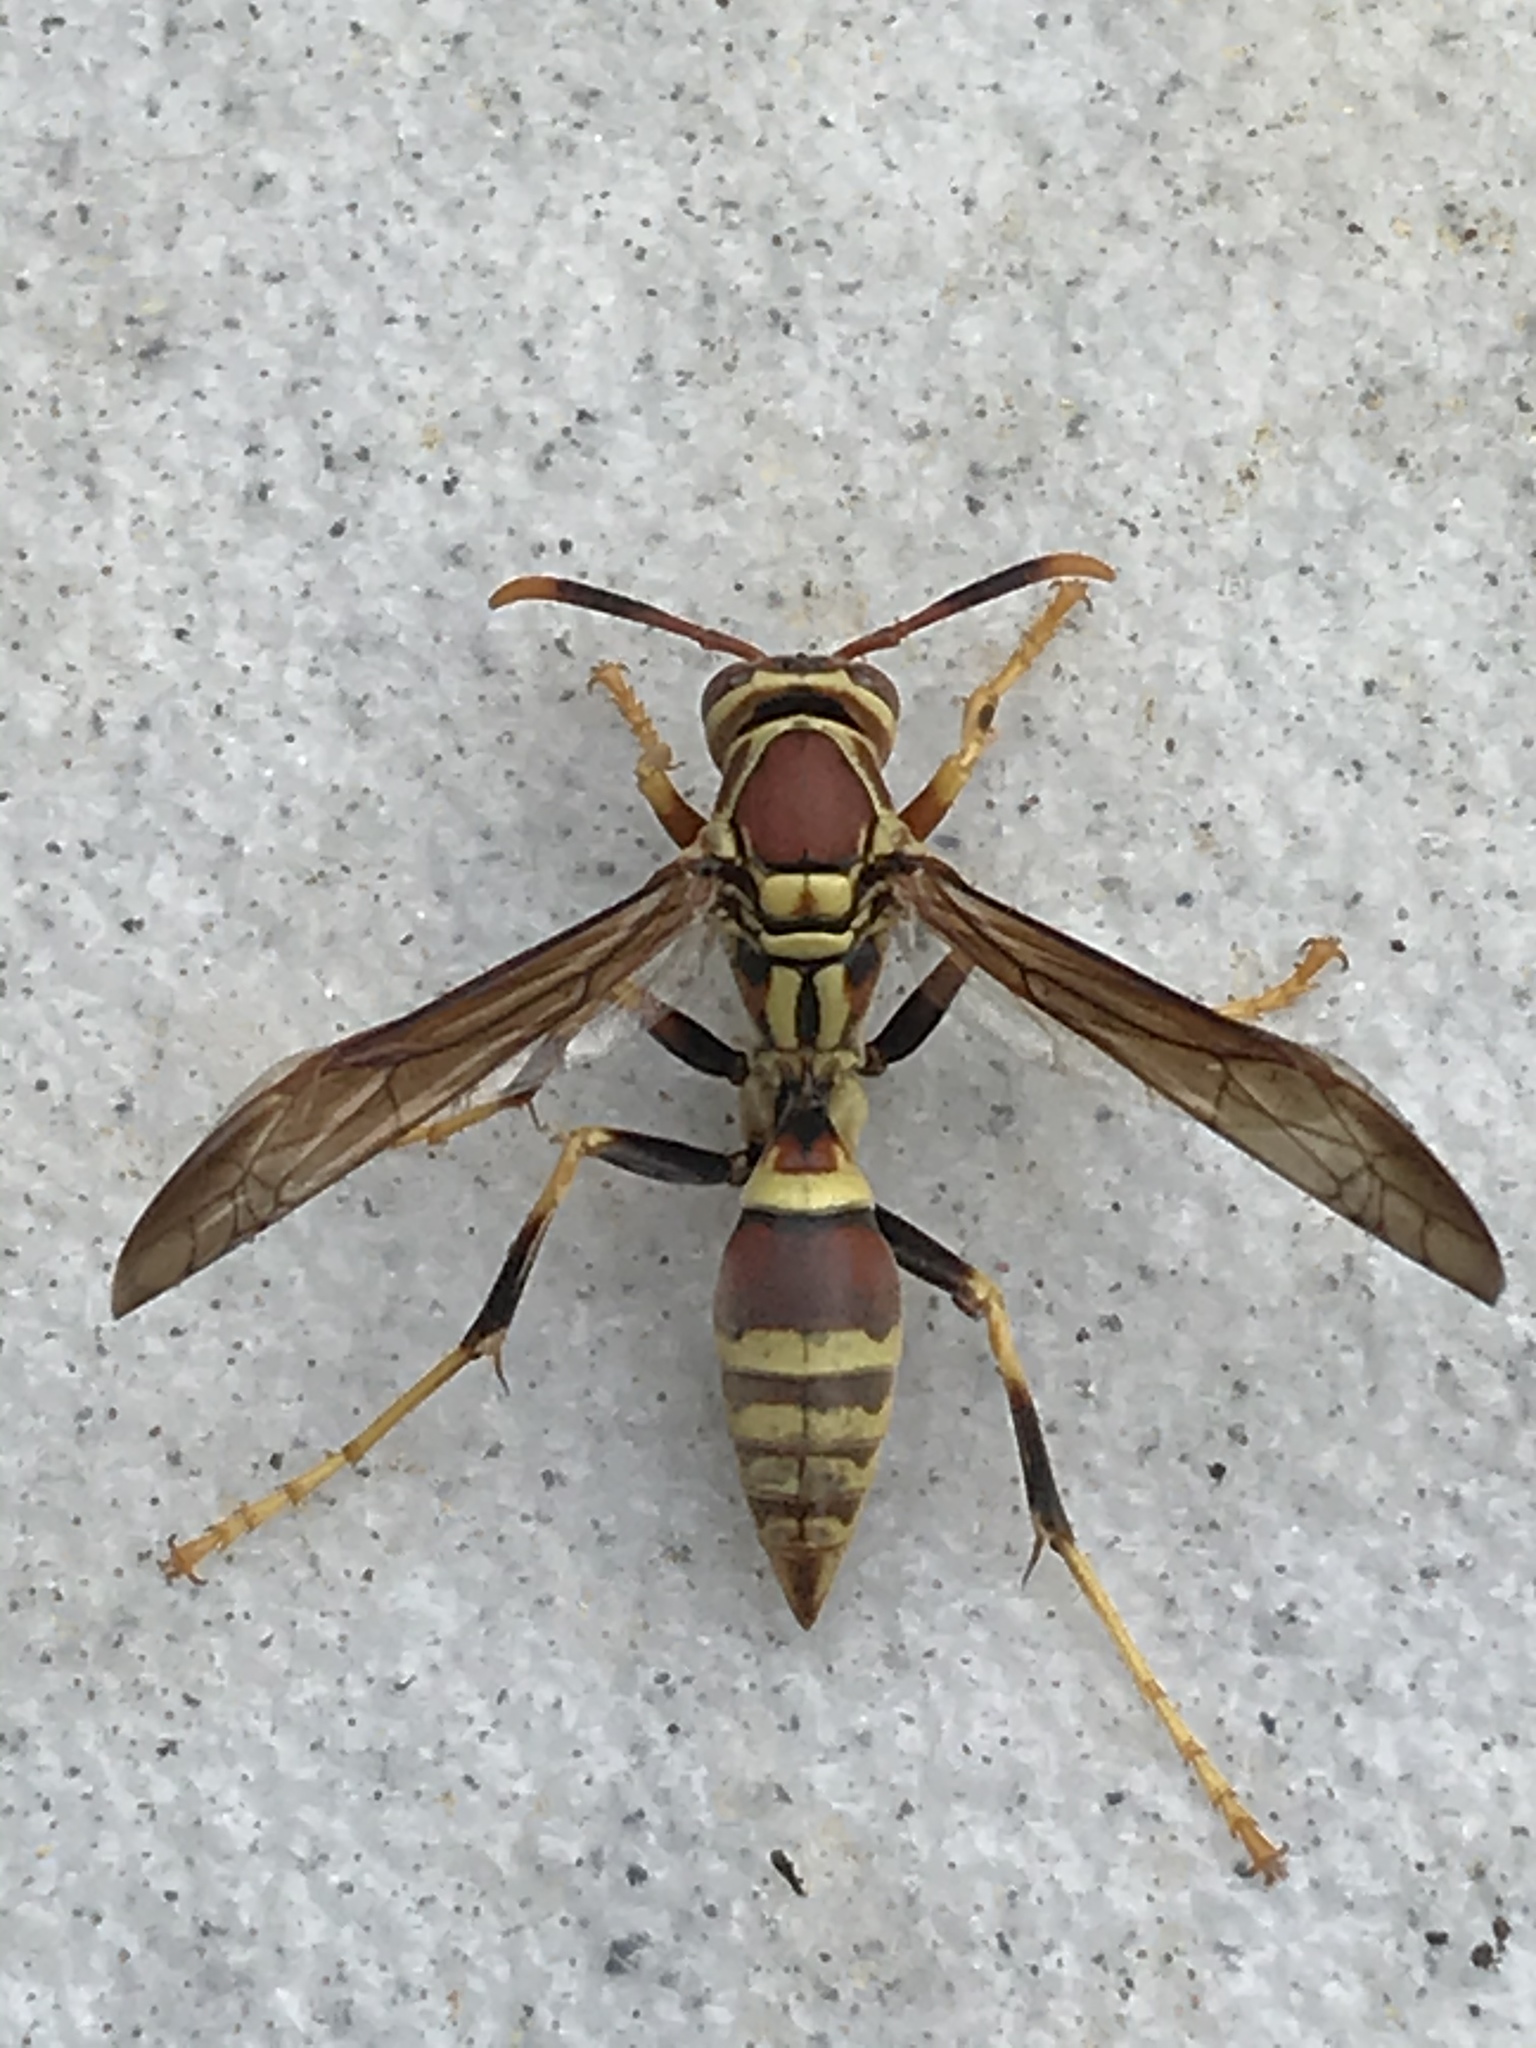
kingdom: Animalia
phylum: Arthropoda
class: Insecta
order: Hymenoptera
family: Eumenidae
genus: Polistes
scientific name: Polistes exclamans
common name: Paper wasp
